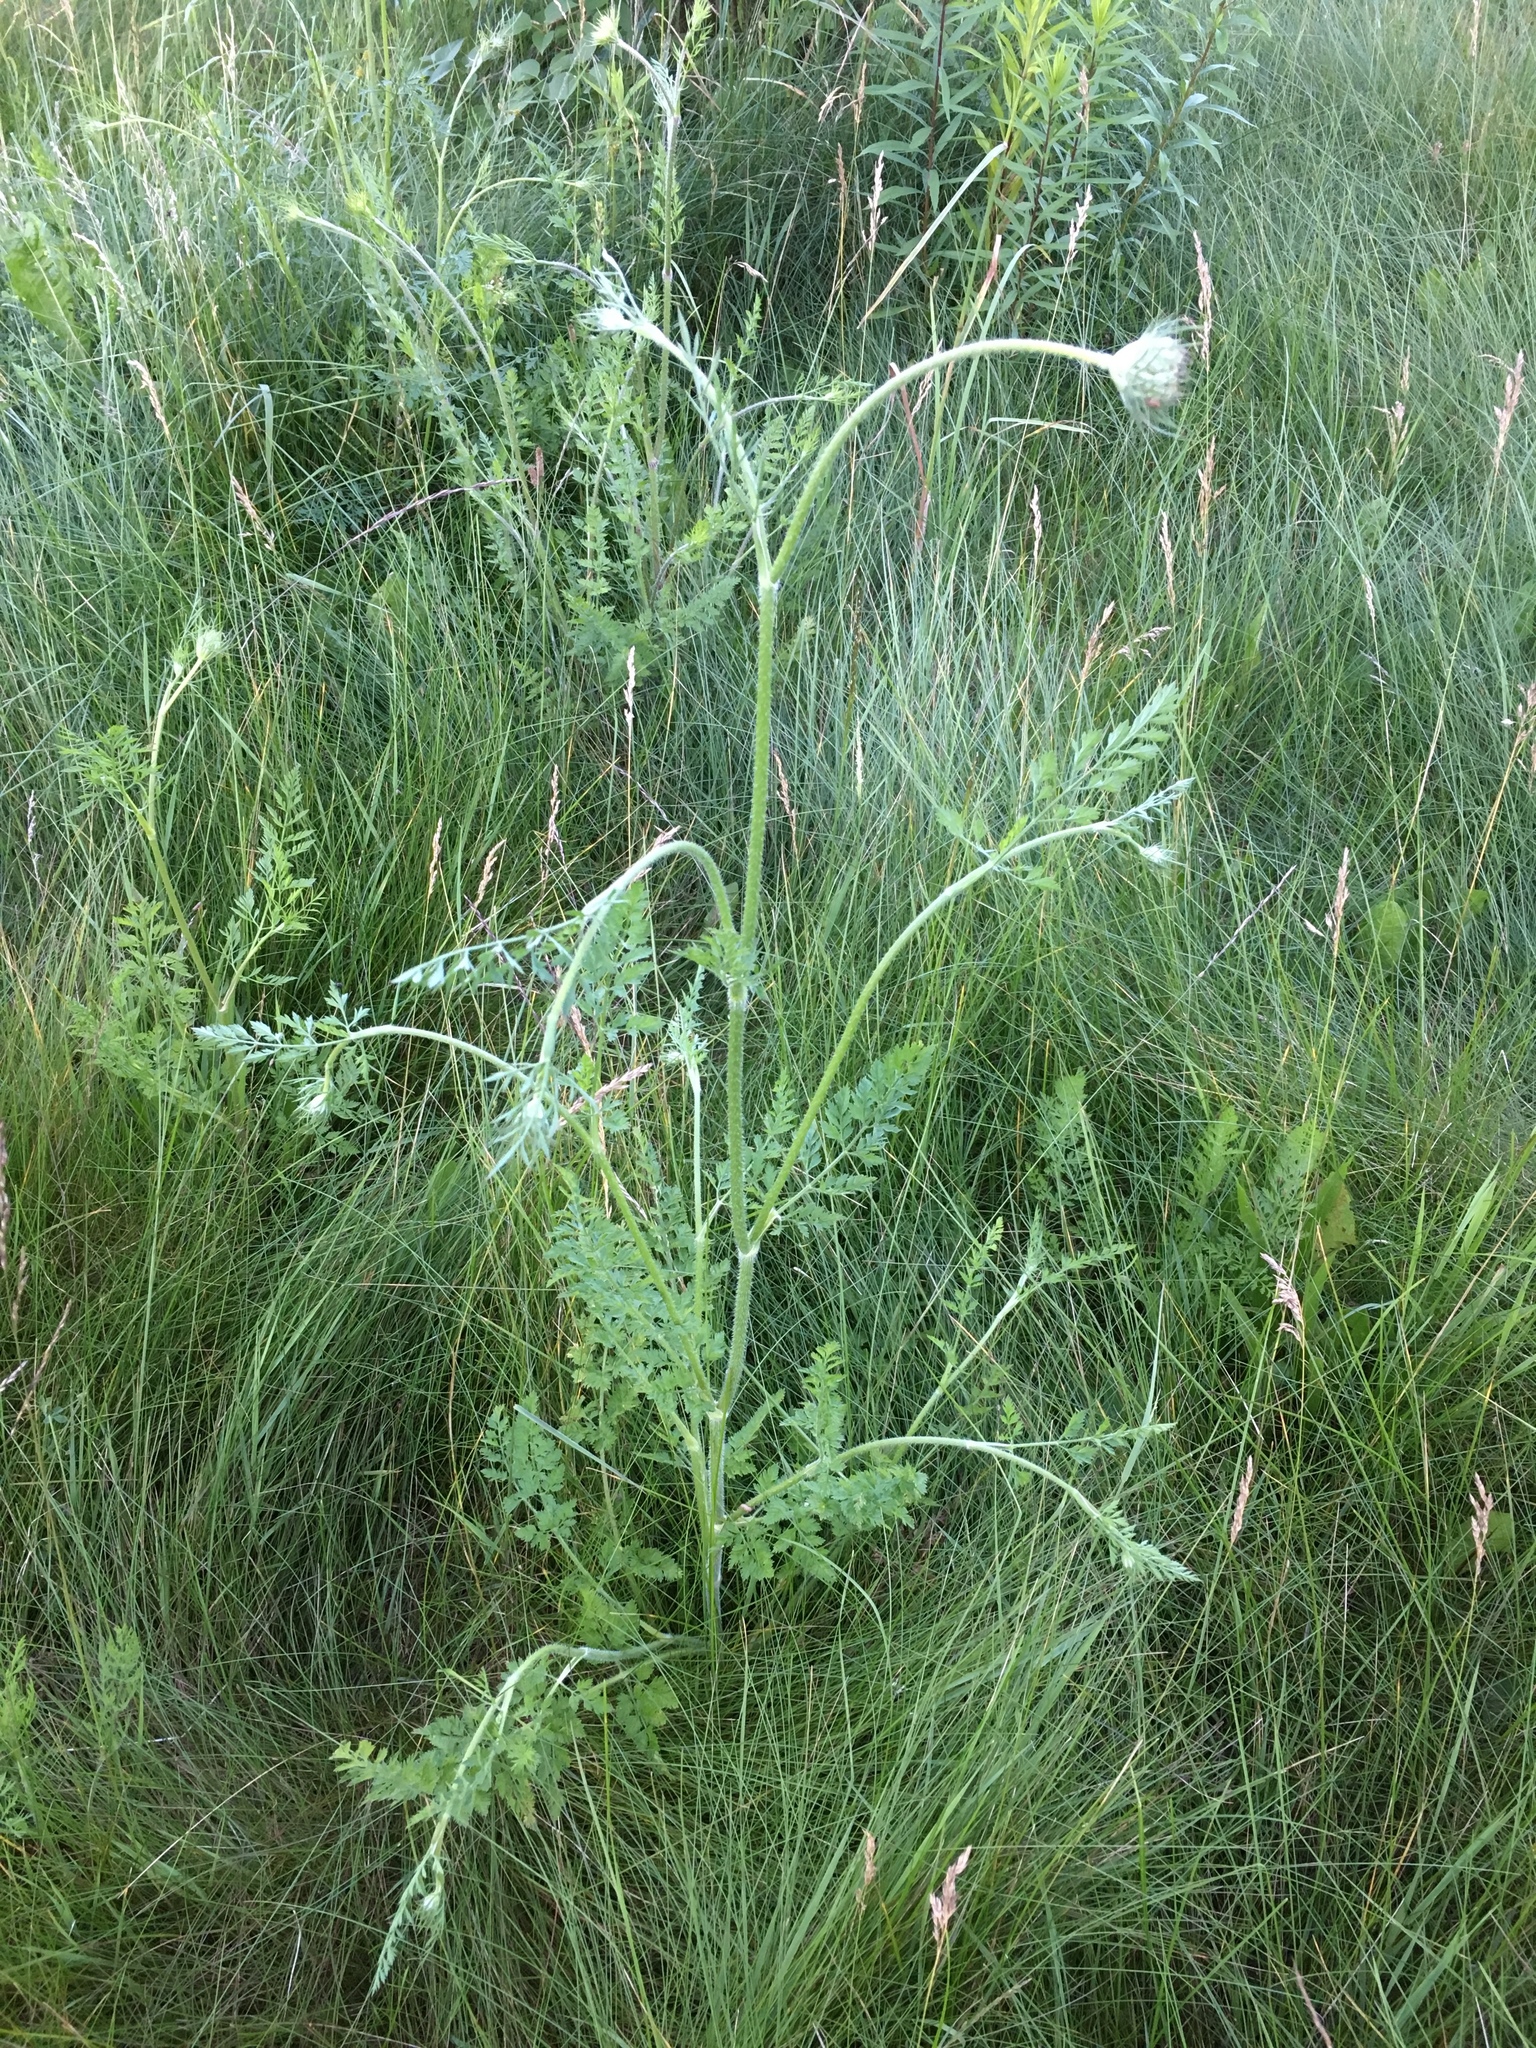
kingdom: Plantae
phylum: Tracheophyta
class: Magnoliopsida
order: Apiales
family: Apiaceae
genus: Daucus
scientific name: Daucus carota
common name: Wild carrot
